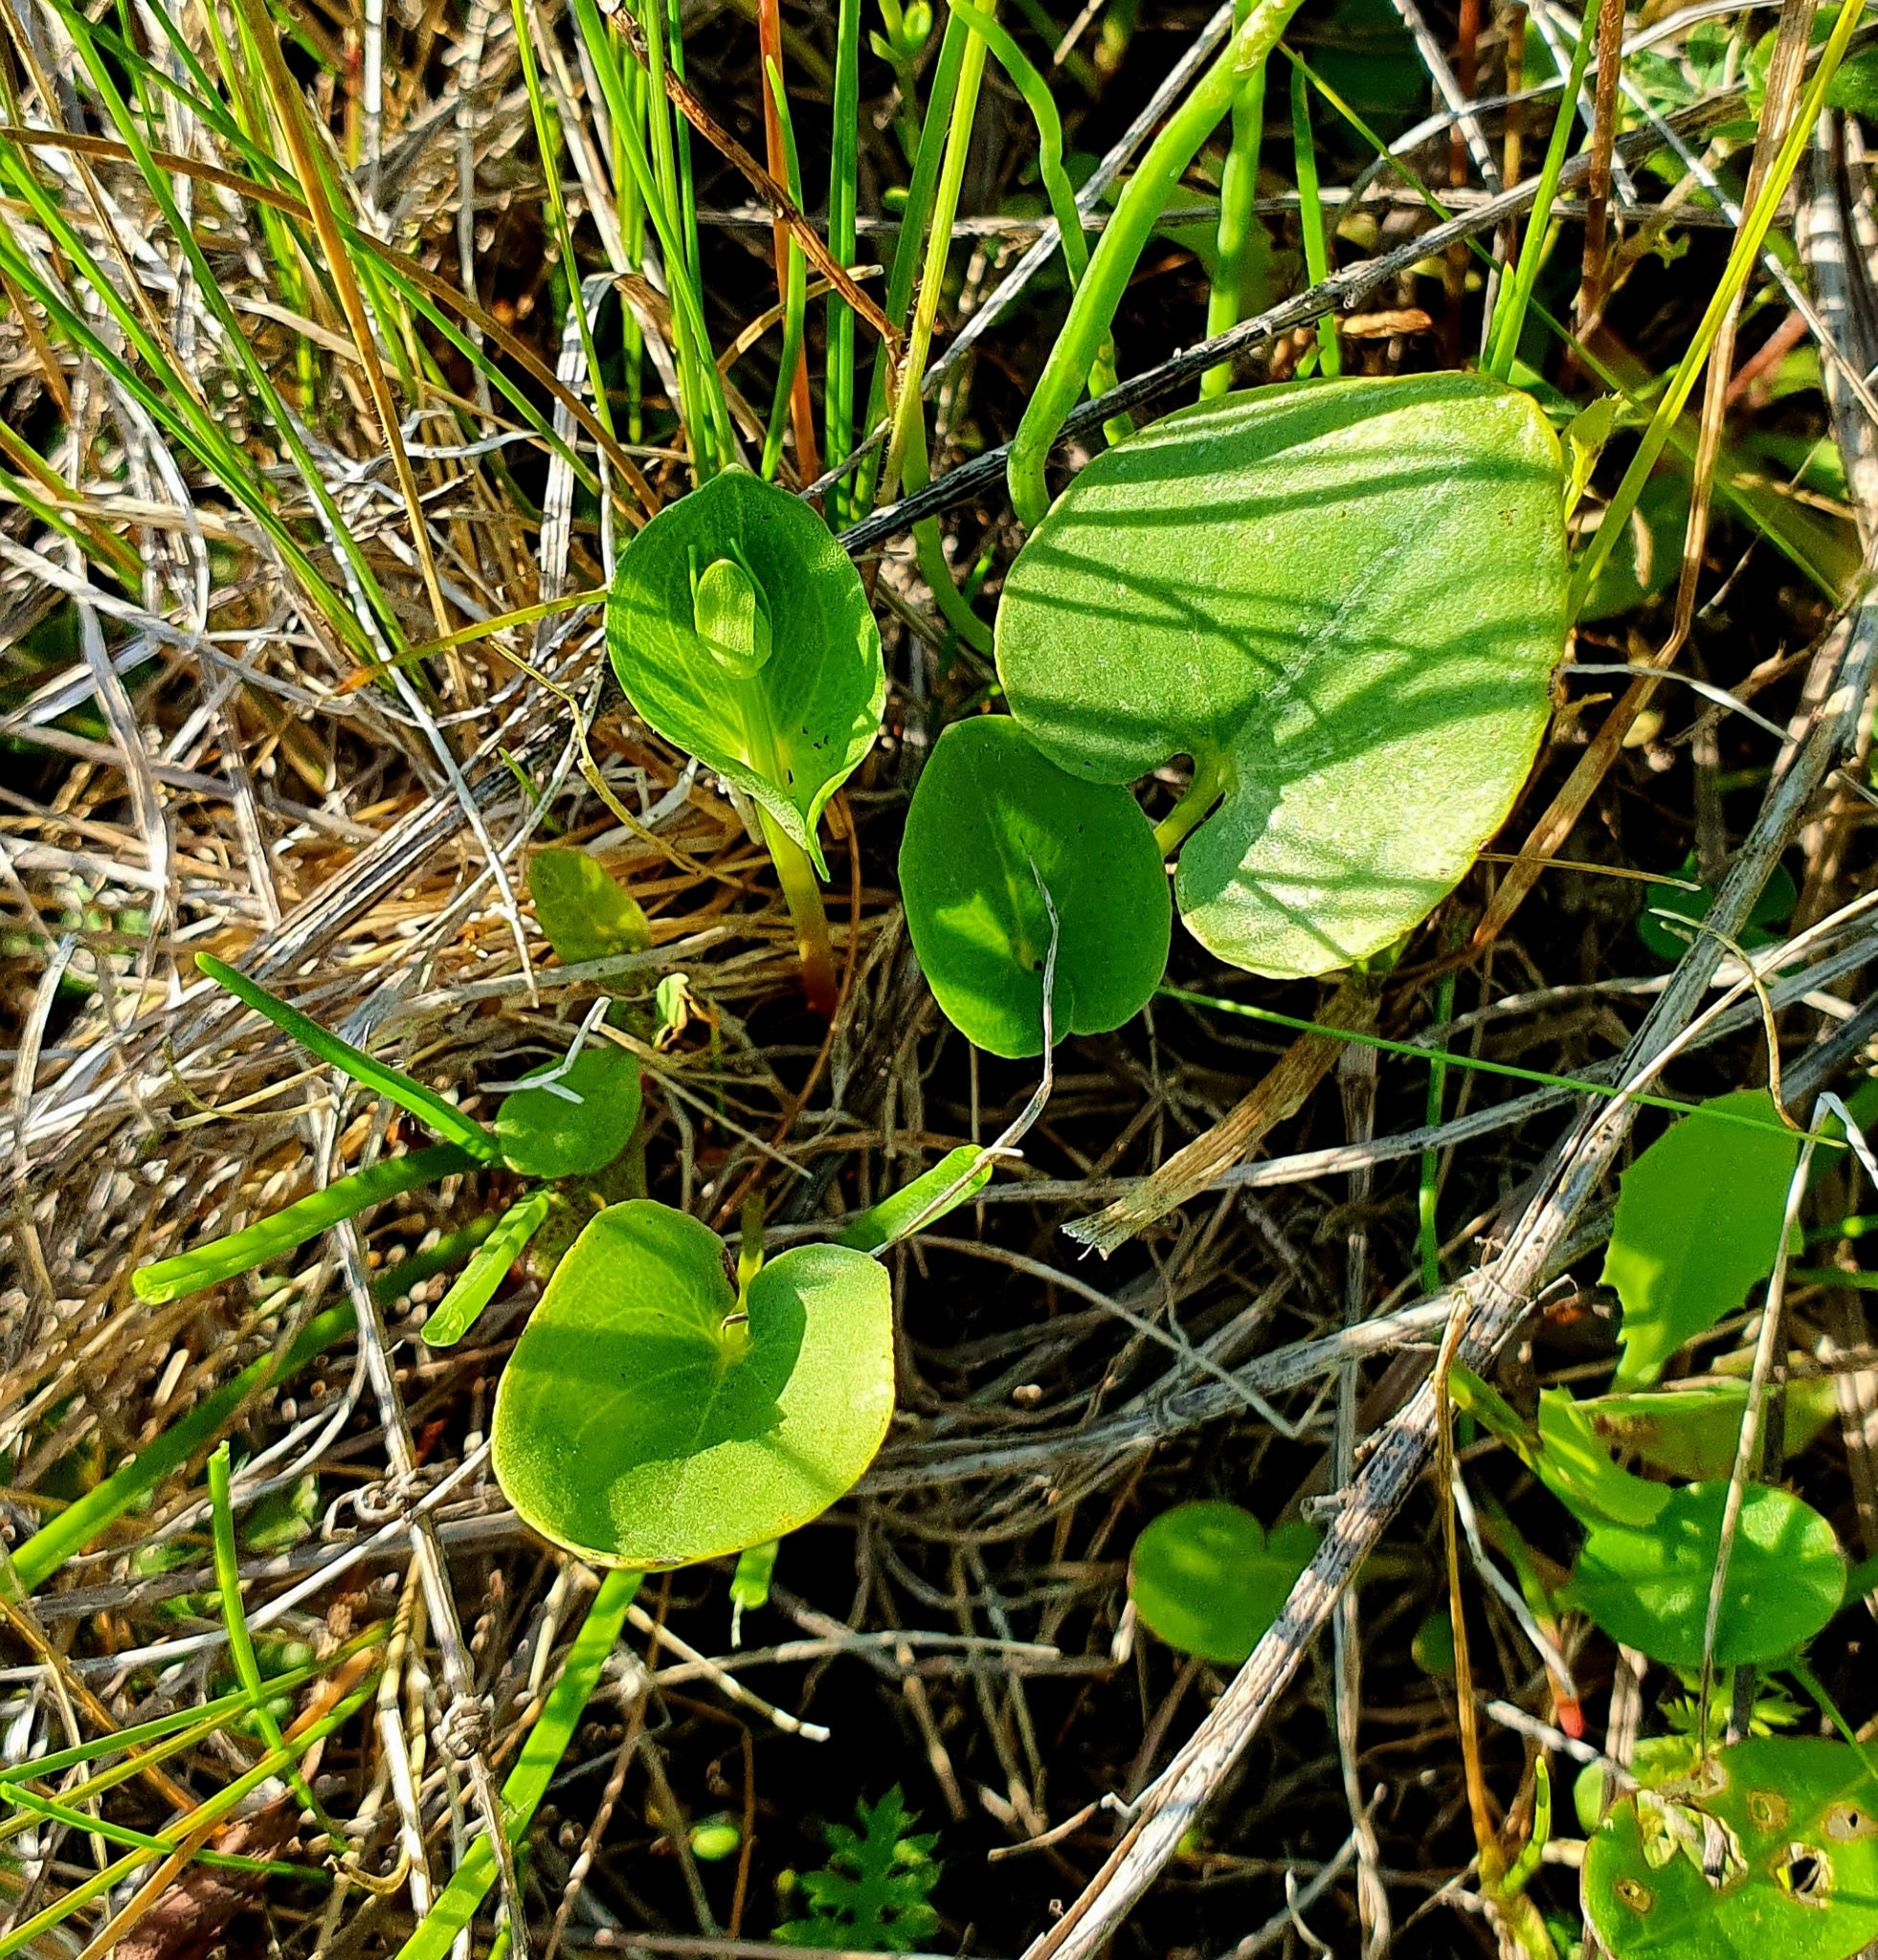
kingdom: Plantae
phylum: Tracheophyta
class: Magnoliopsida
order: Celastrales
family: Parnassiaceae
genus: Parnassia
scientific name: Parnassia palustris
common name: Grass-of-parnassus
